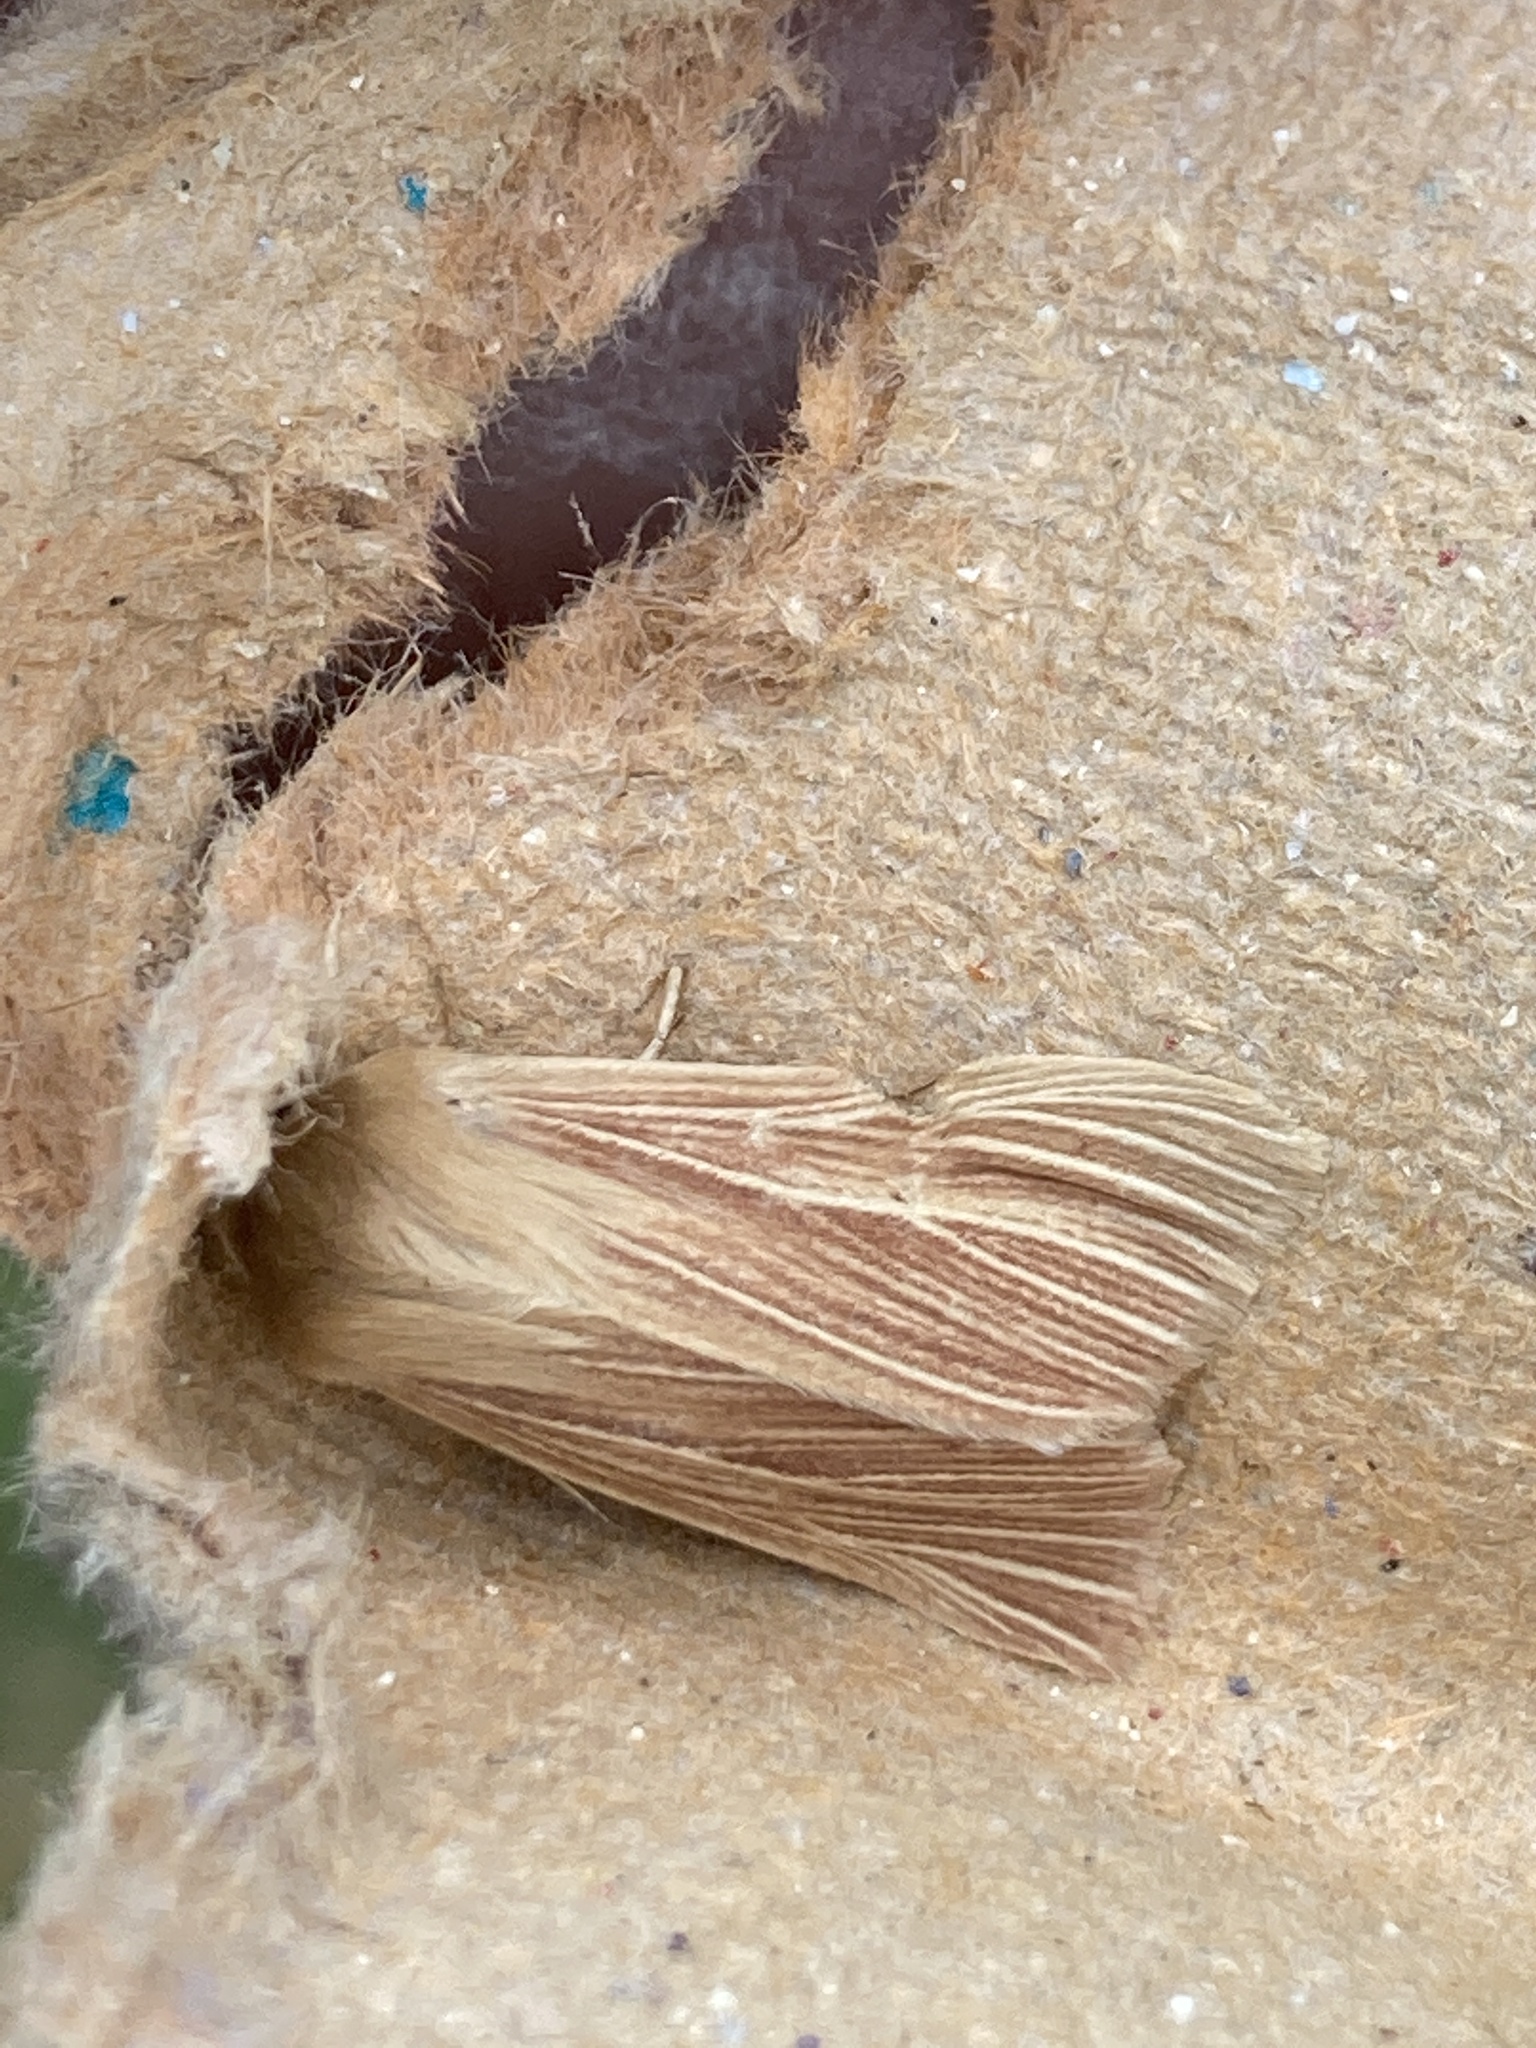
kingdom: Animalia
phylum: Arthropoda
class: Insecta
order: Lepidoptera
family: Noctuidae
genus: Mythimna
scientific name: Mythimna impura
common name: Smoky wainscot
